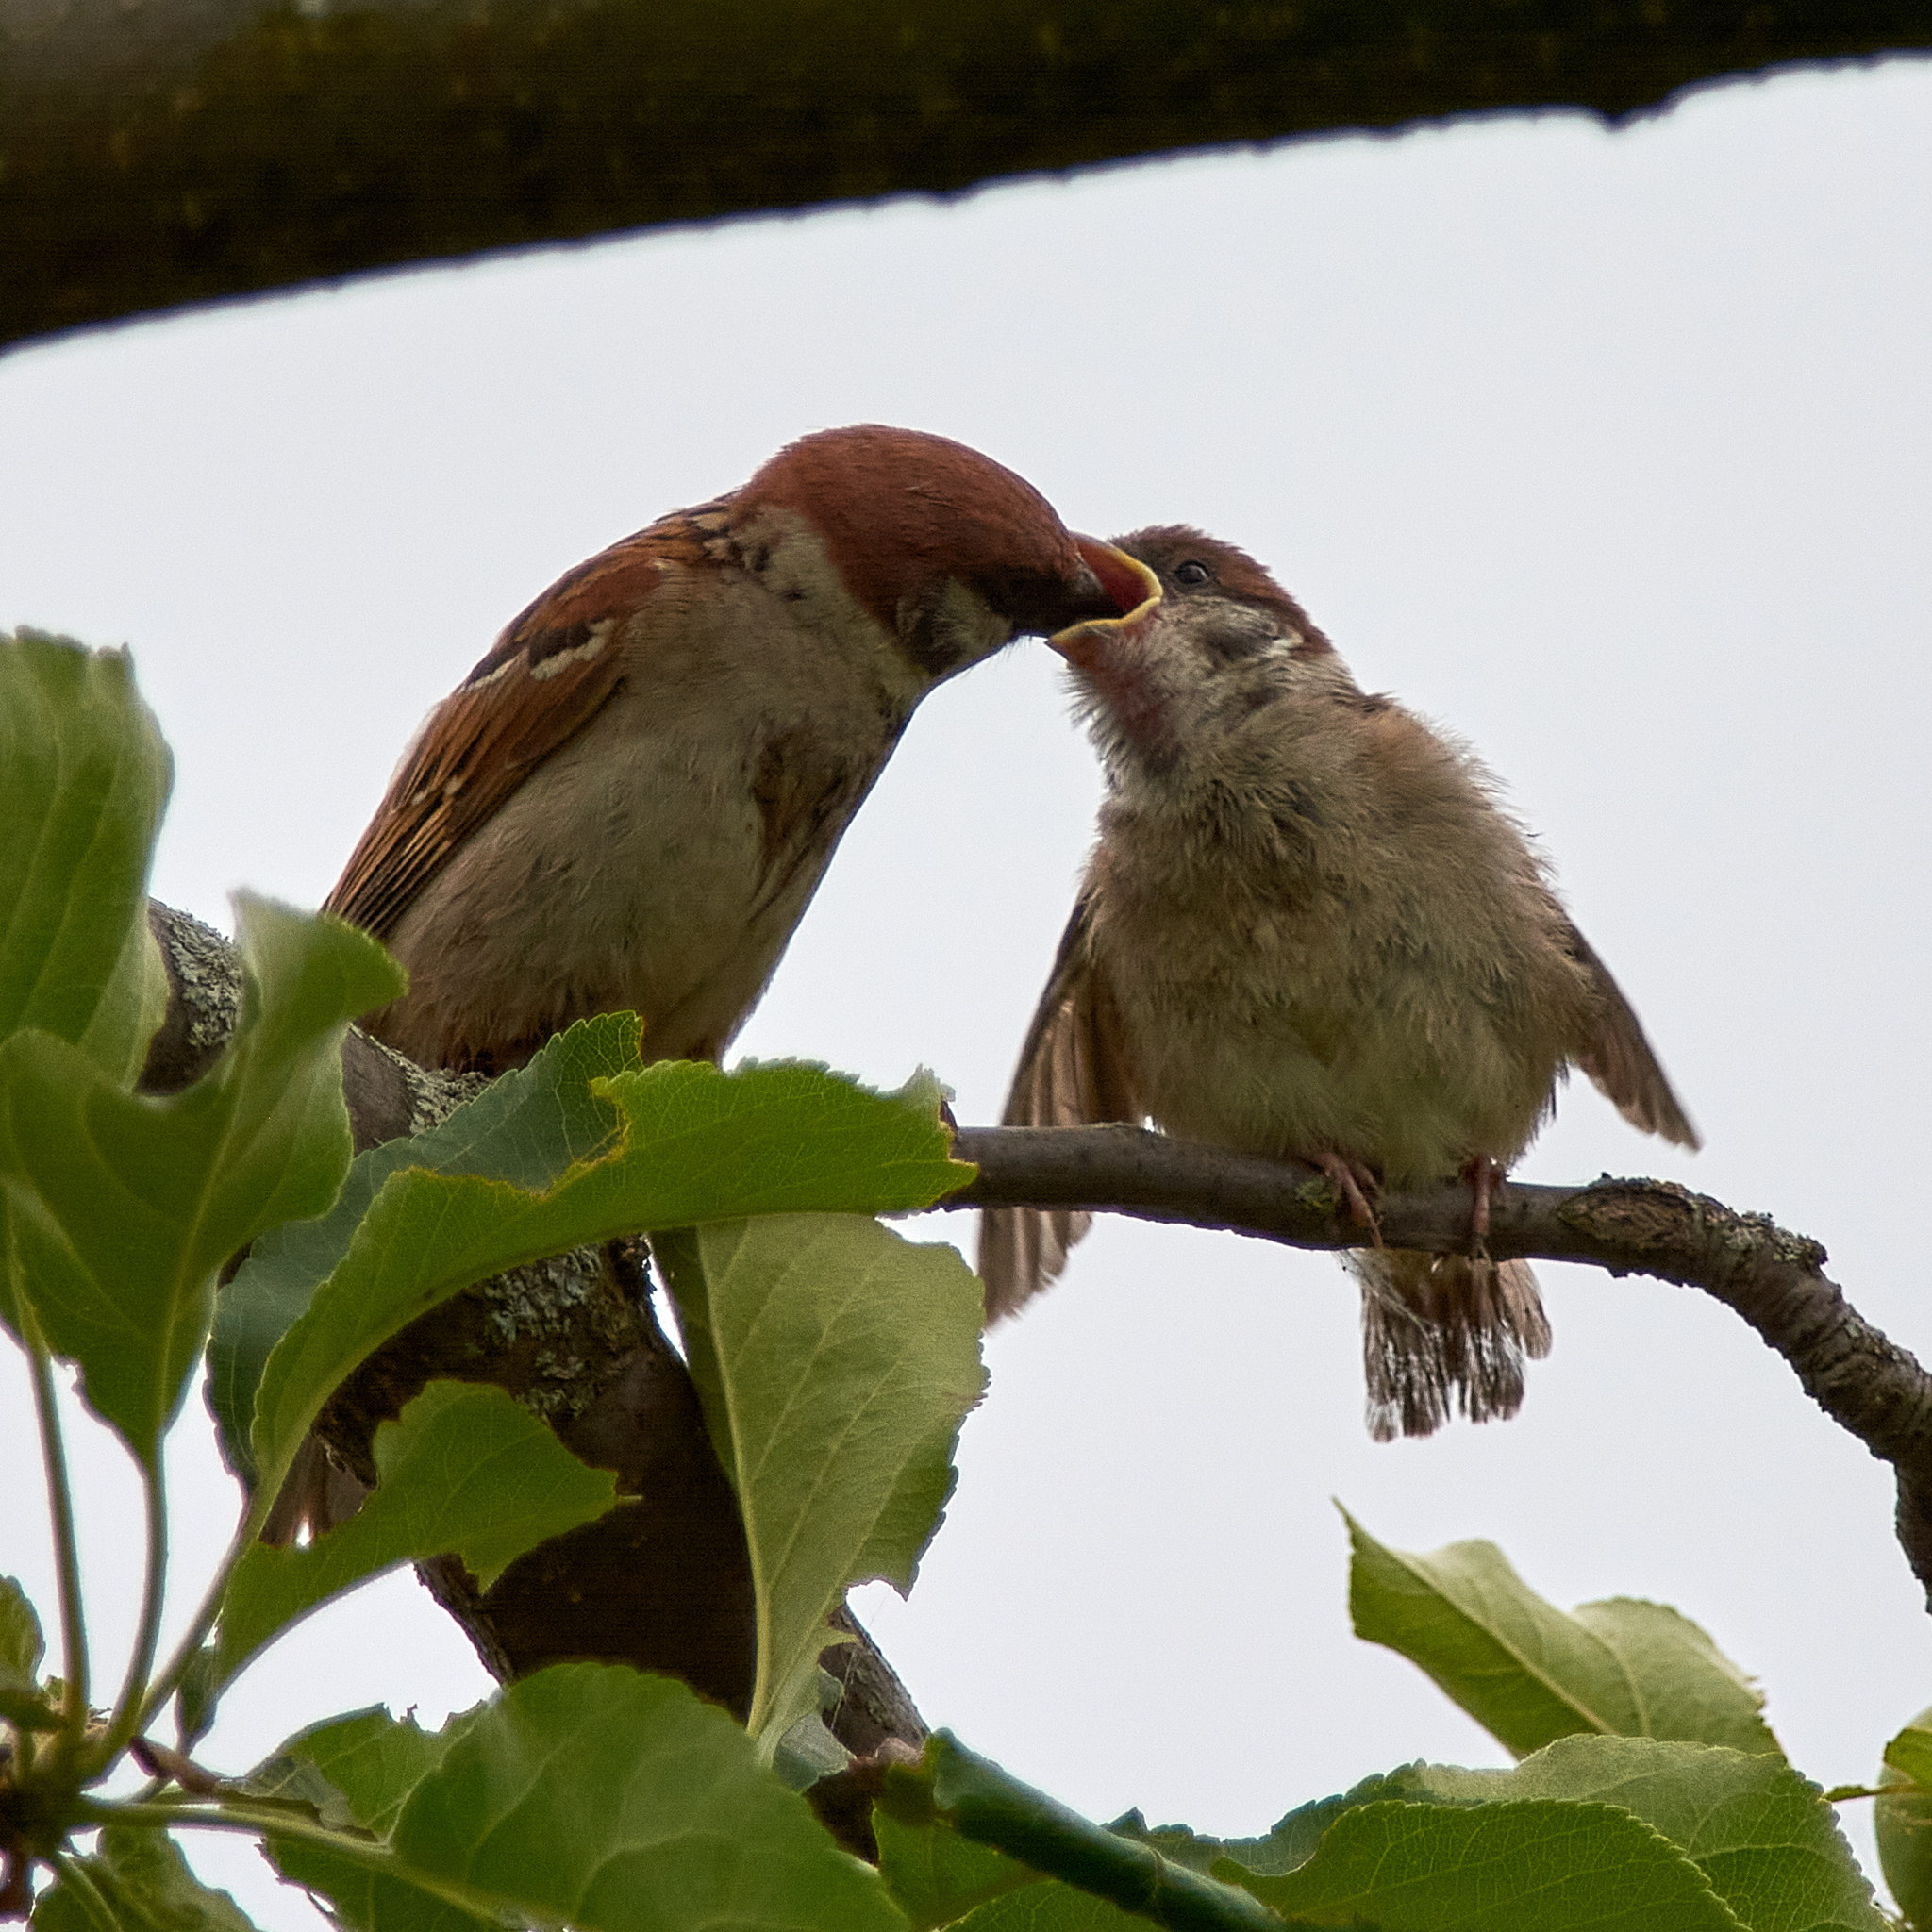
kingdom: Animalia
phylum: Chordata
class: Aves
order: Passeriformes
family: Passeridae
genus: Passer
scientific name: Passer montanus
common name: Eurasian tree sparrow
